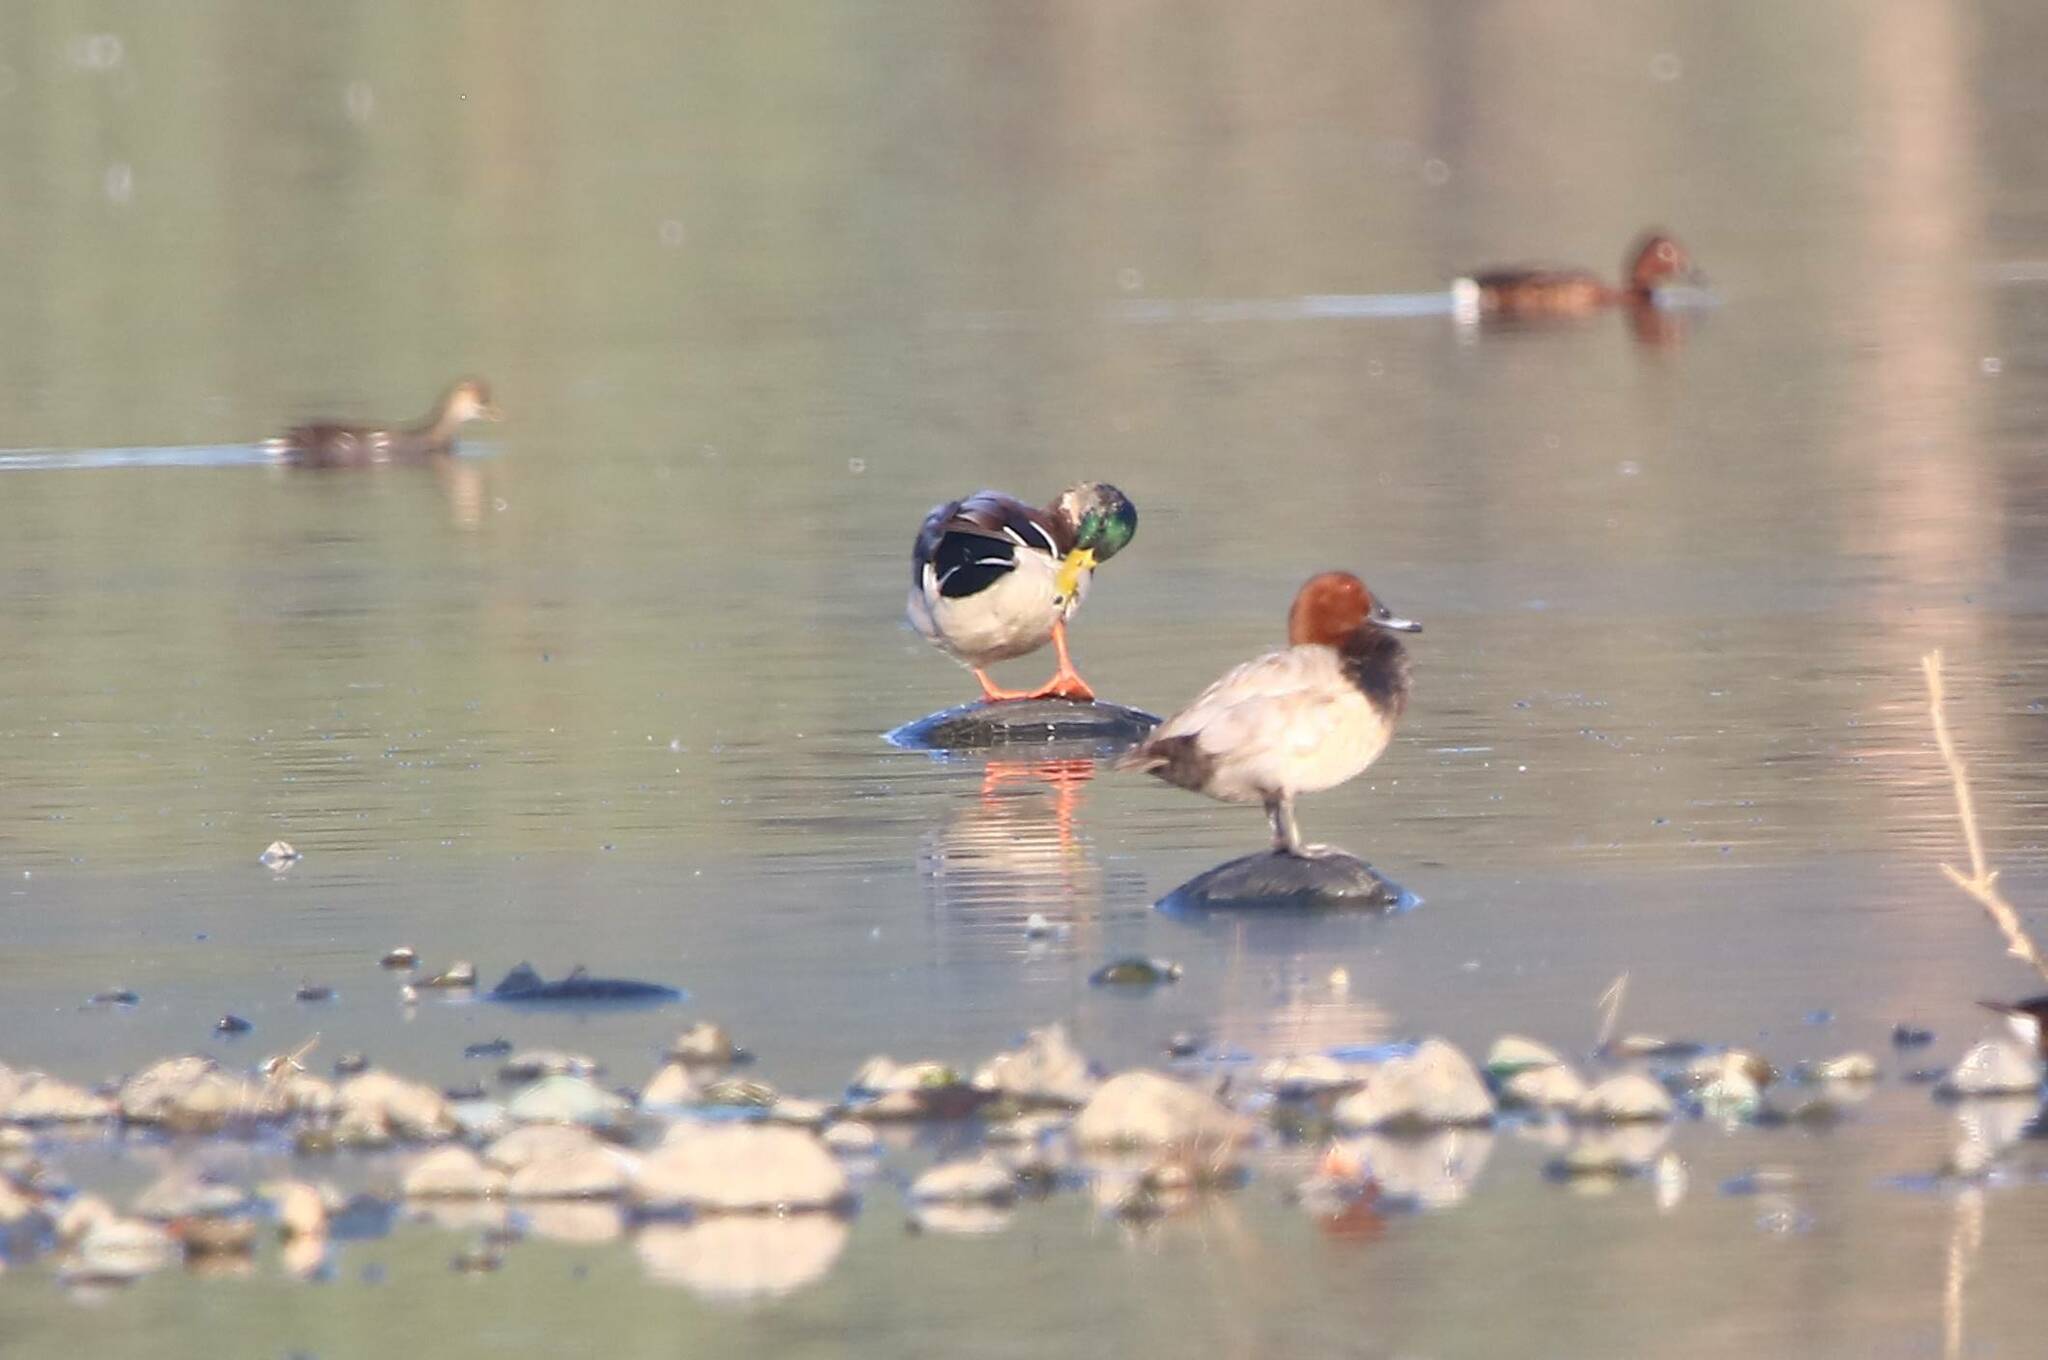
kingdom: Animalia
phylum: Chordata
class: Aves
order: Anseriformes
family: Anatidae
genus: Aythya
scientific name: Aythya ferina
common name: Common pochard
